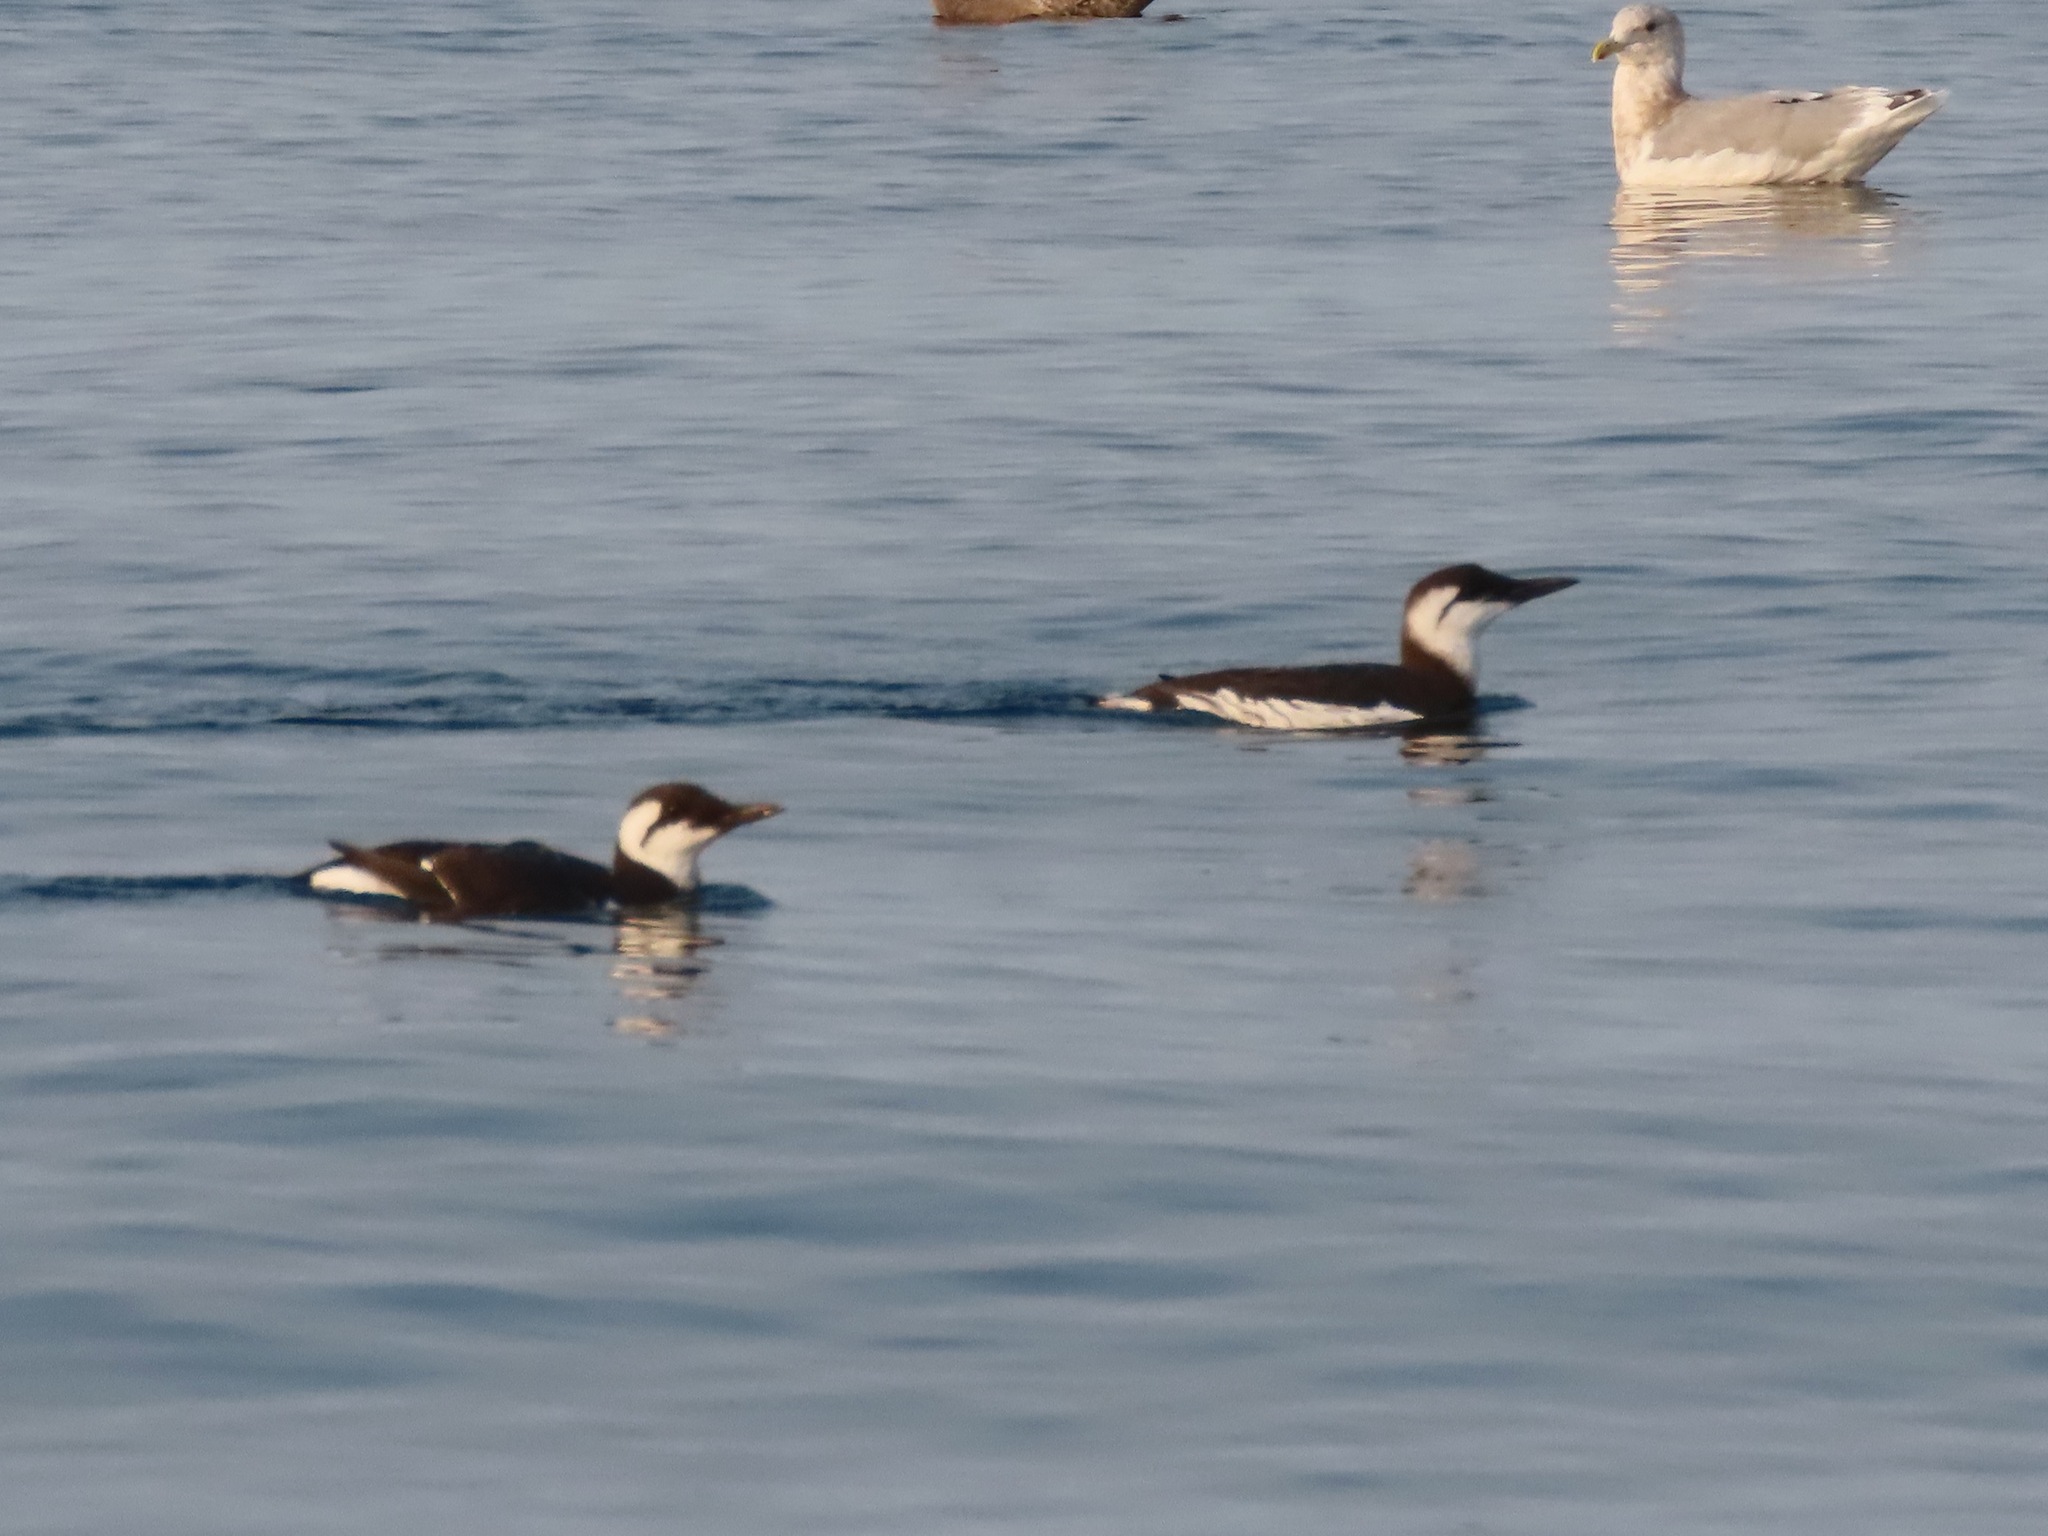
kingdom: Animalia
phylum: Chordata
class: Aves
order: Charadriiformes
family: Alcidae
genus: Uria
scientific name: Uria aalge
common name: Common murre
